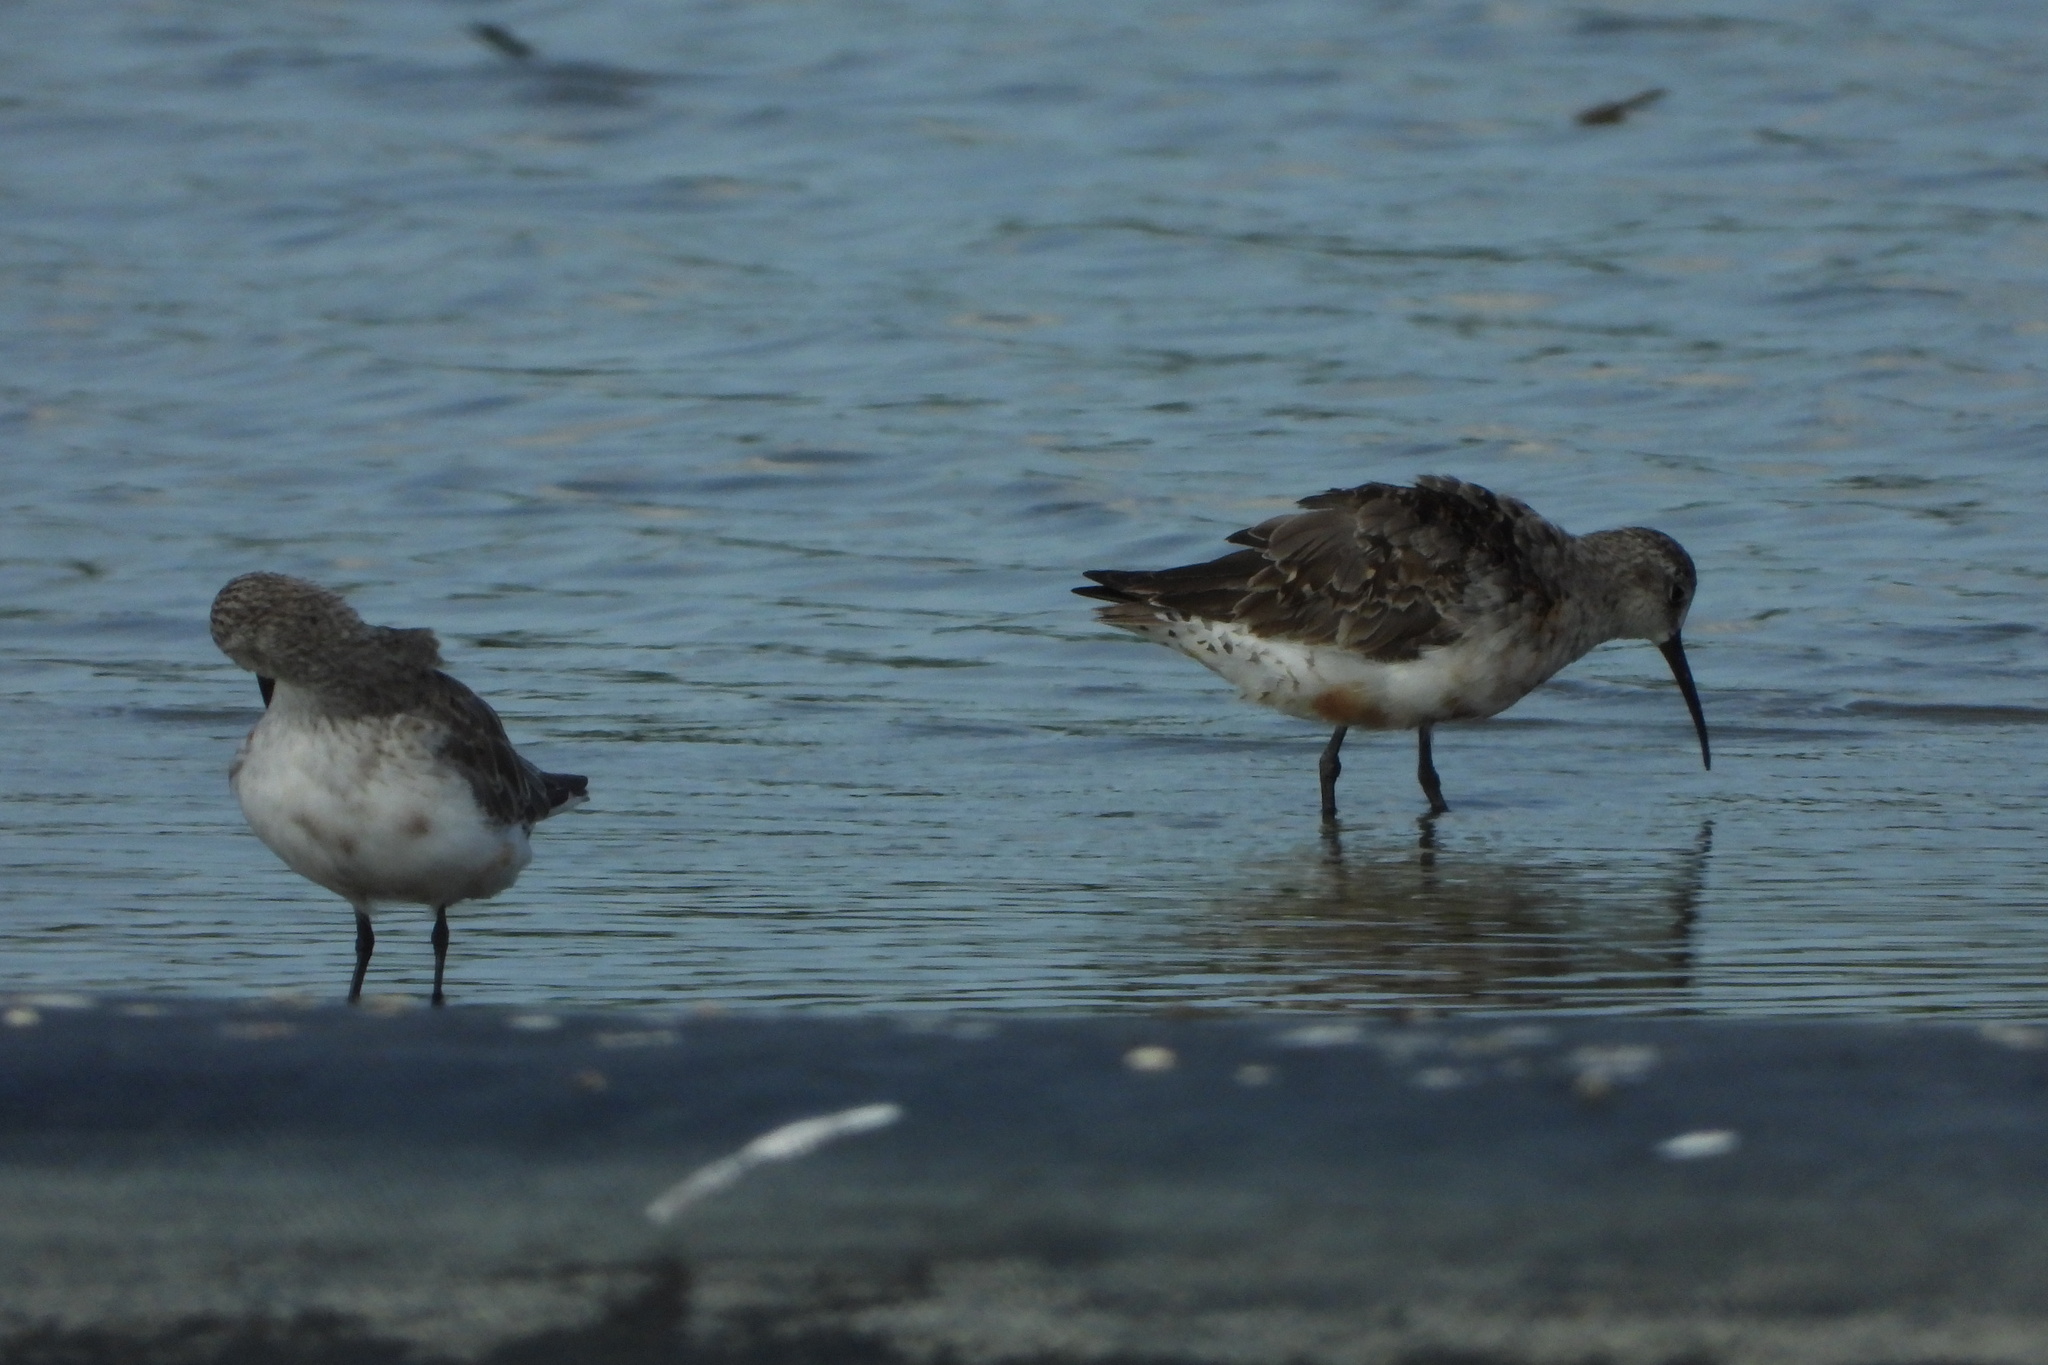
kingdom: Animalia
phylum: Chordata
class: Aves
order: Charadriiformes
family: Scolopacidae
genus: Calidris
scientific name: Calidris ferruginea
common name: Curlew sandpiper
